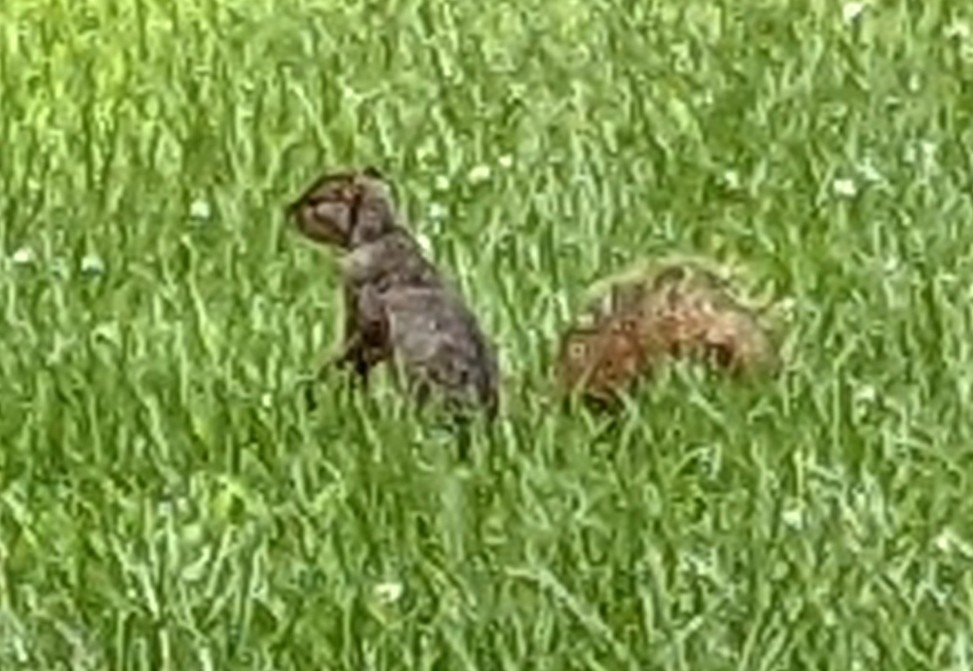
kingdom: Animalia
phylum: Chordata
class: Mammalia
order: Rodentia
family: Sciuridae
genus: Sciurus
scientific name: Sciurus niger
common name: Fox squirrel
